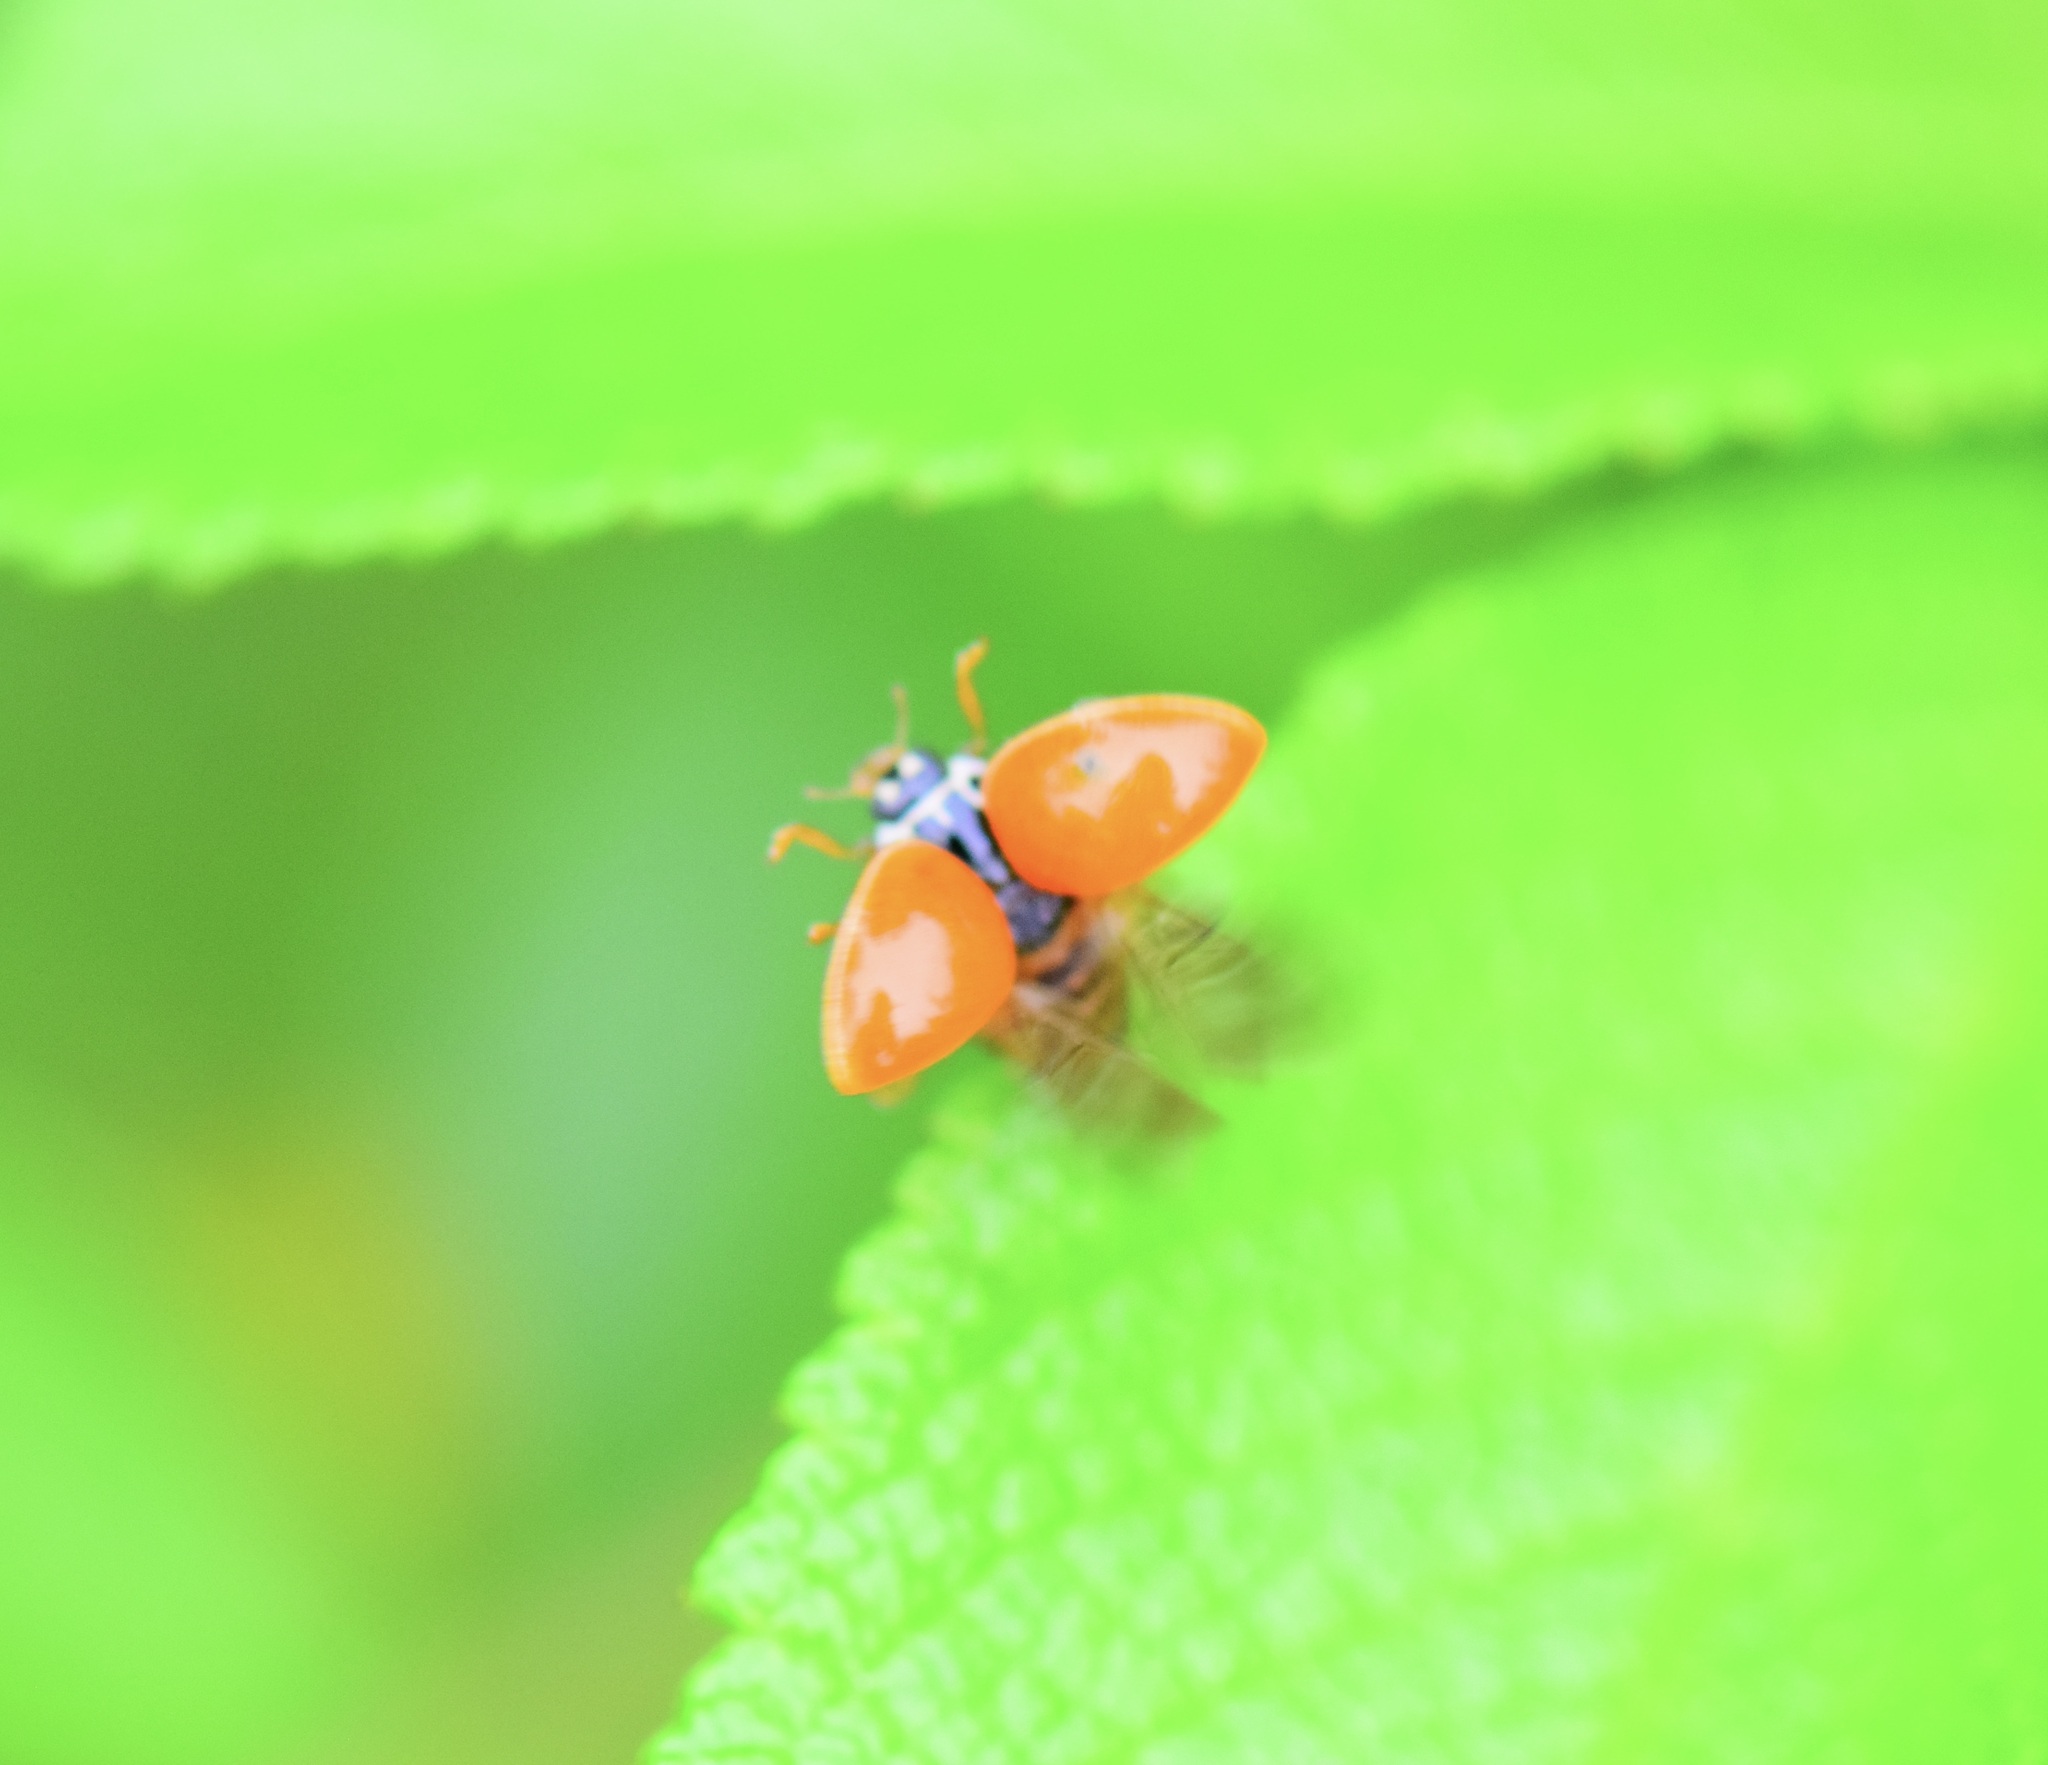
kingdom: Animalia
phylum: Arthropoda
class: Insecta
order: Coleoptera
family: Coccinellidae
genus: Cycloneda
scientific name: Cycloneda munda
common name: Polished lady beetle
